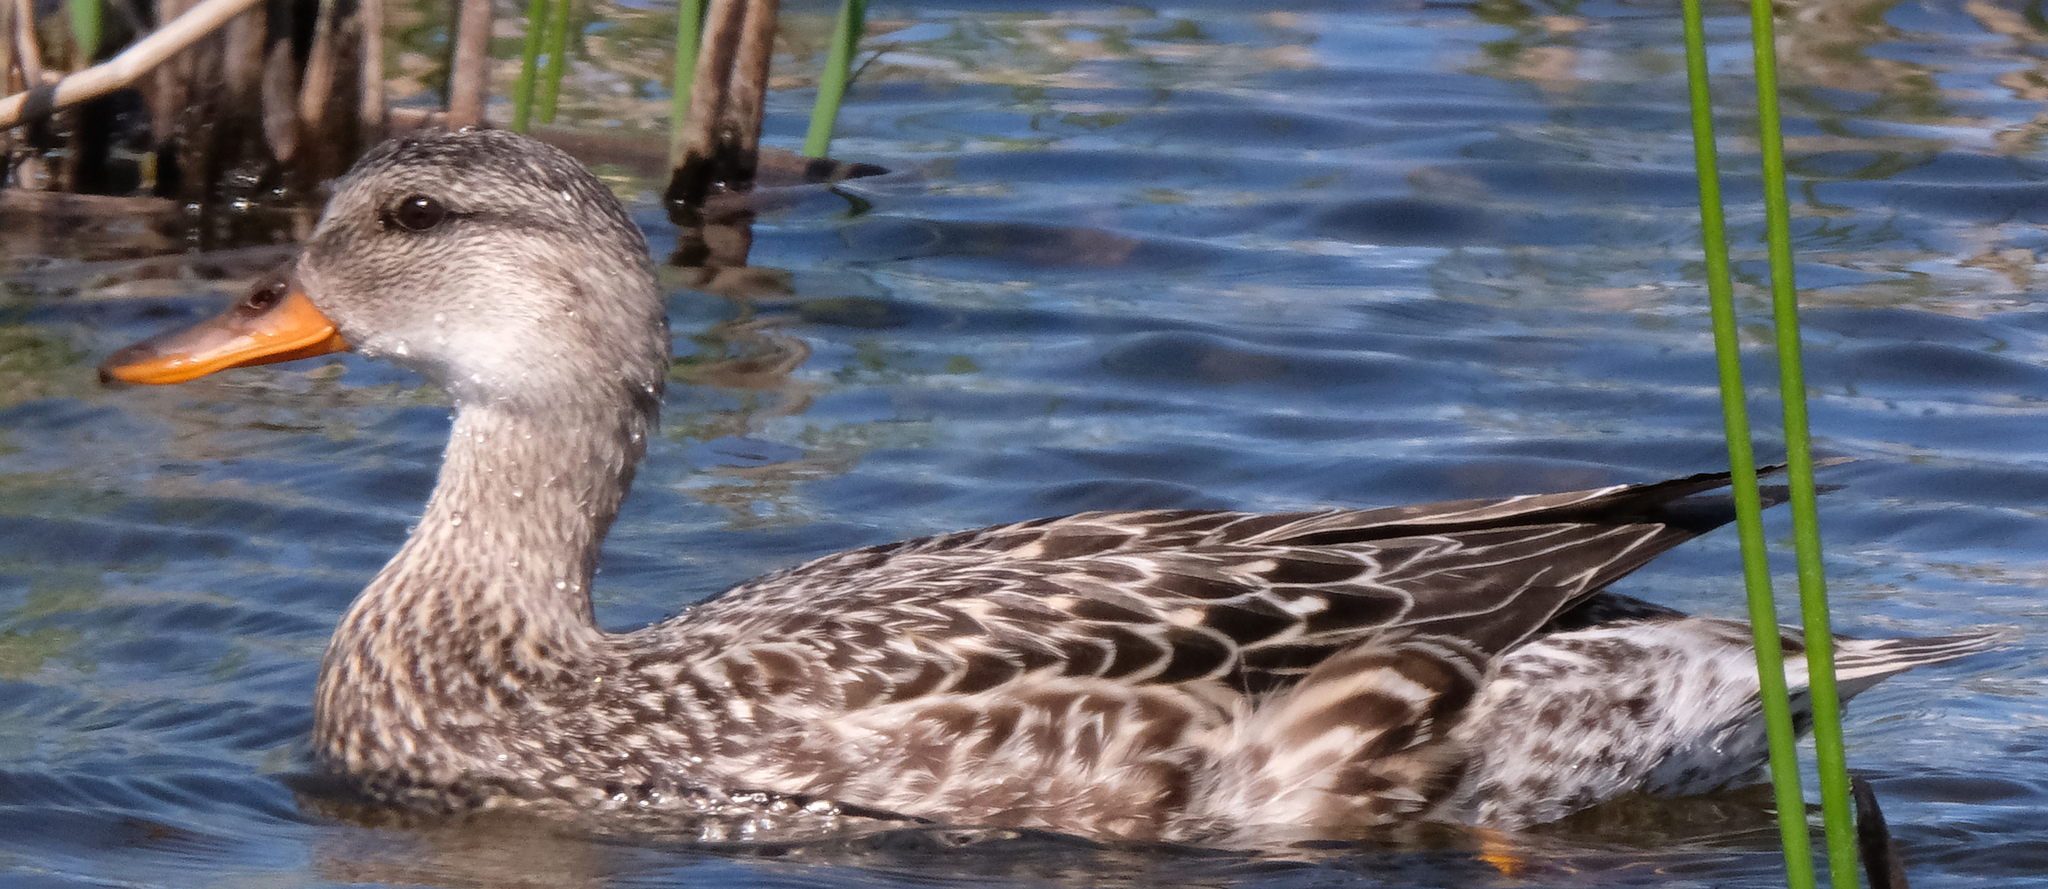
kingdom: Animalia
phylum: Chordata
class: Aves
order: Anseriformes
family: Anatidae
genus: Mareca
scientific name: Mareca strepera
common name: Gadwall
